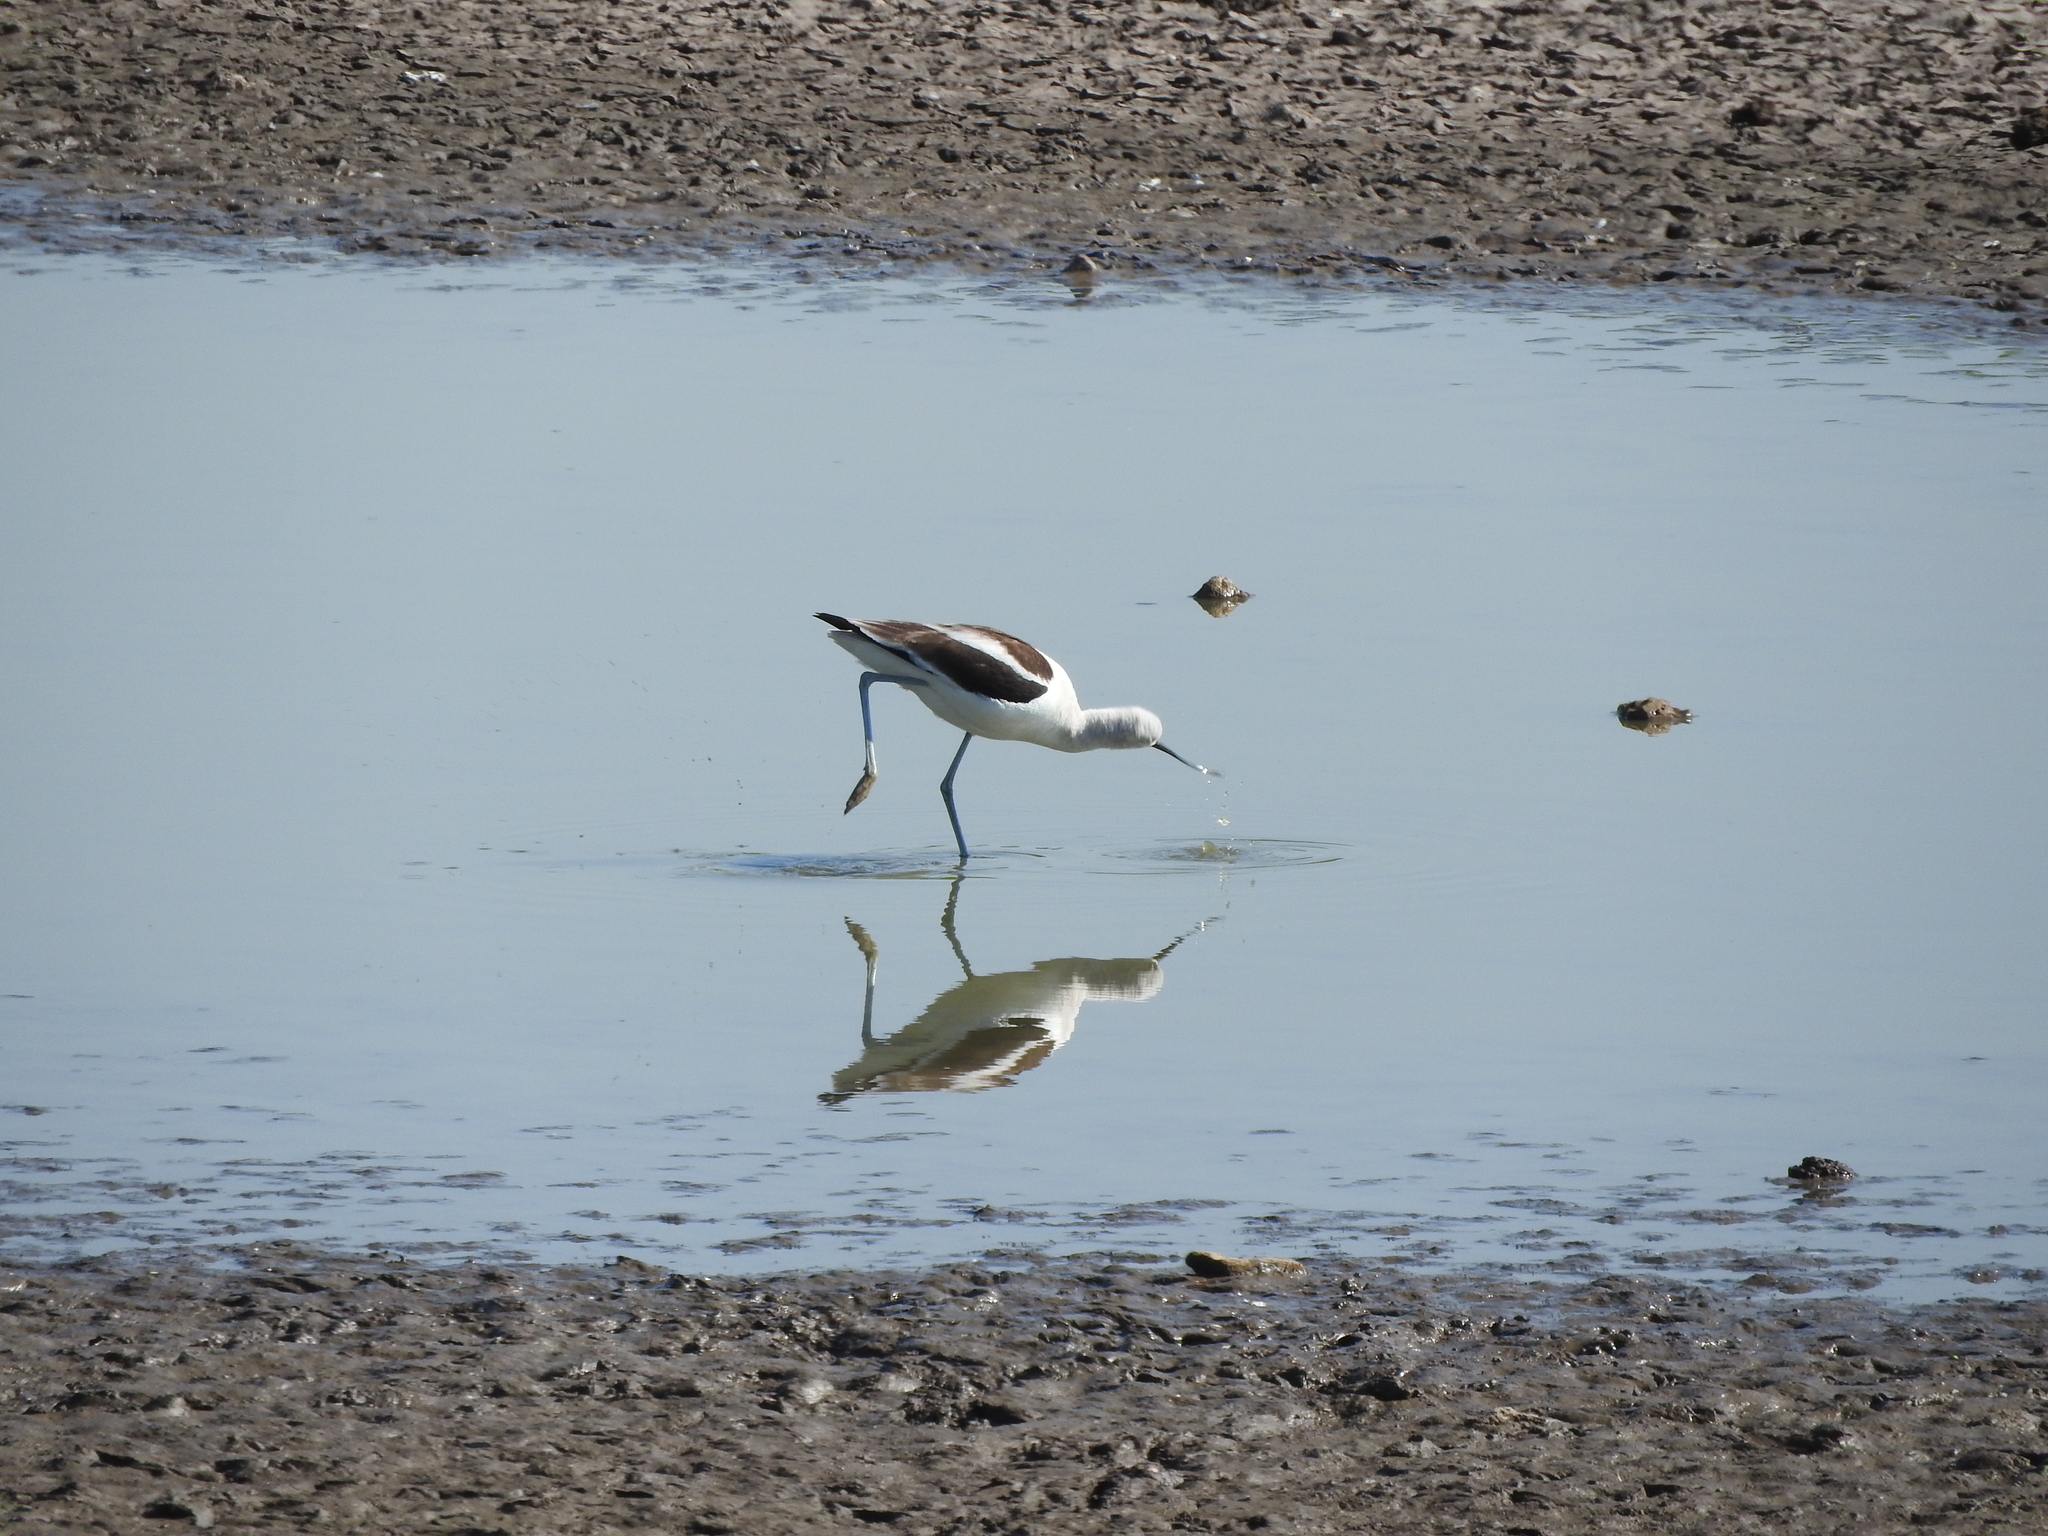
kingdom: Animalia
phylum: Chordata
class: Aves
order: Charadriiformes
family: Recurvirostridae
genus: Recurvirostra
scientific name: Recurvirostra americana
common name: American avocet
